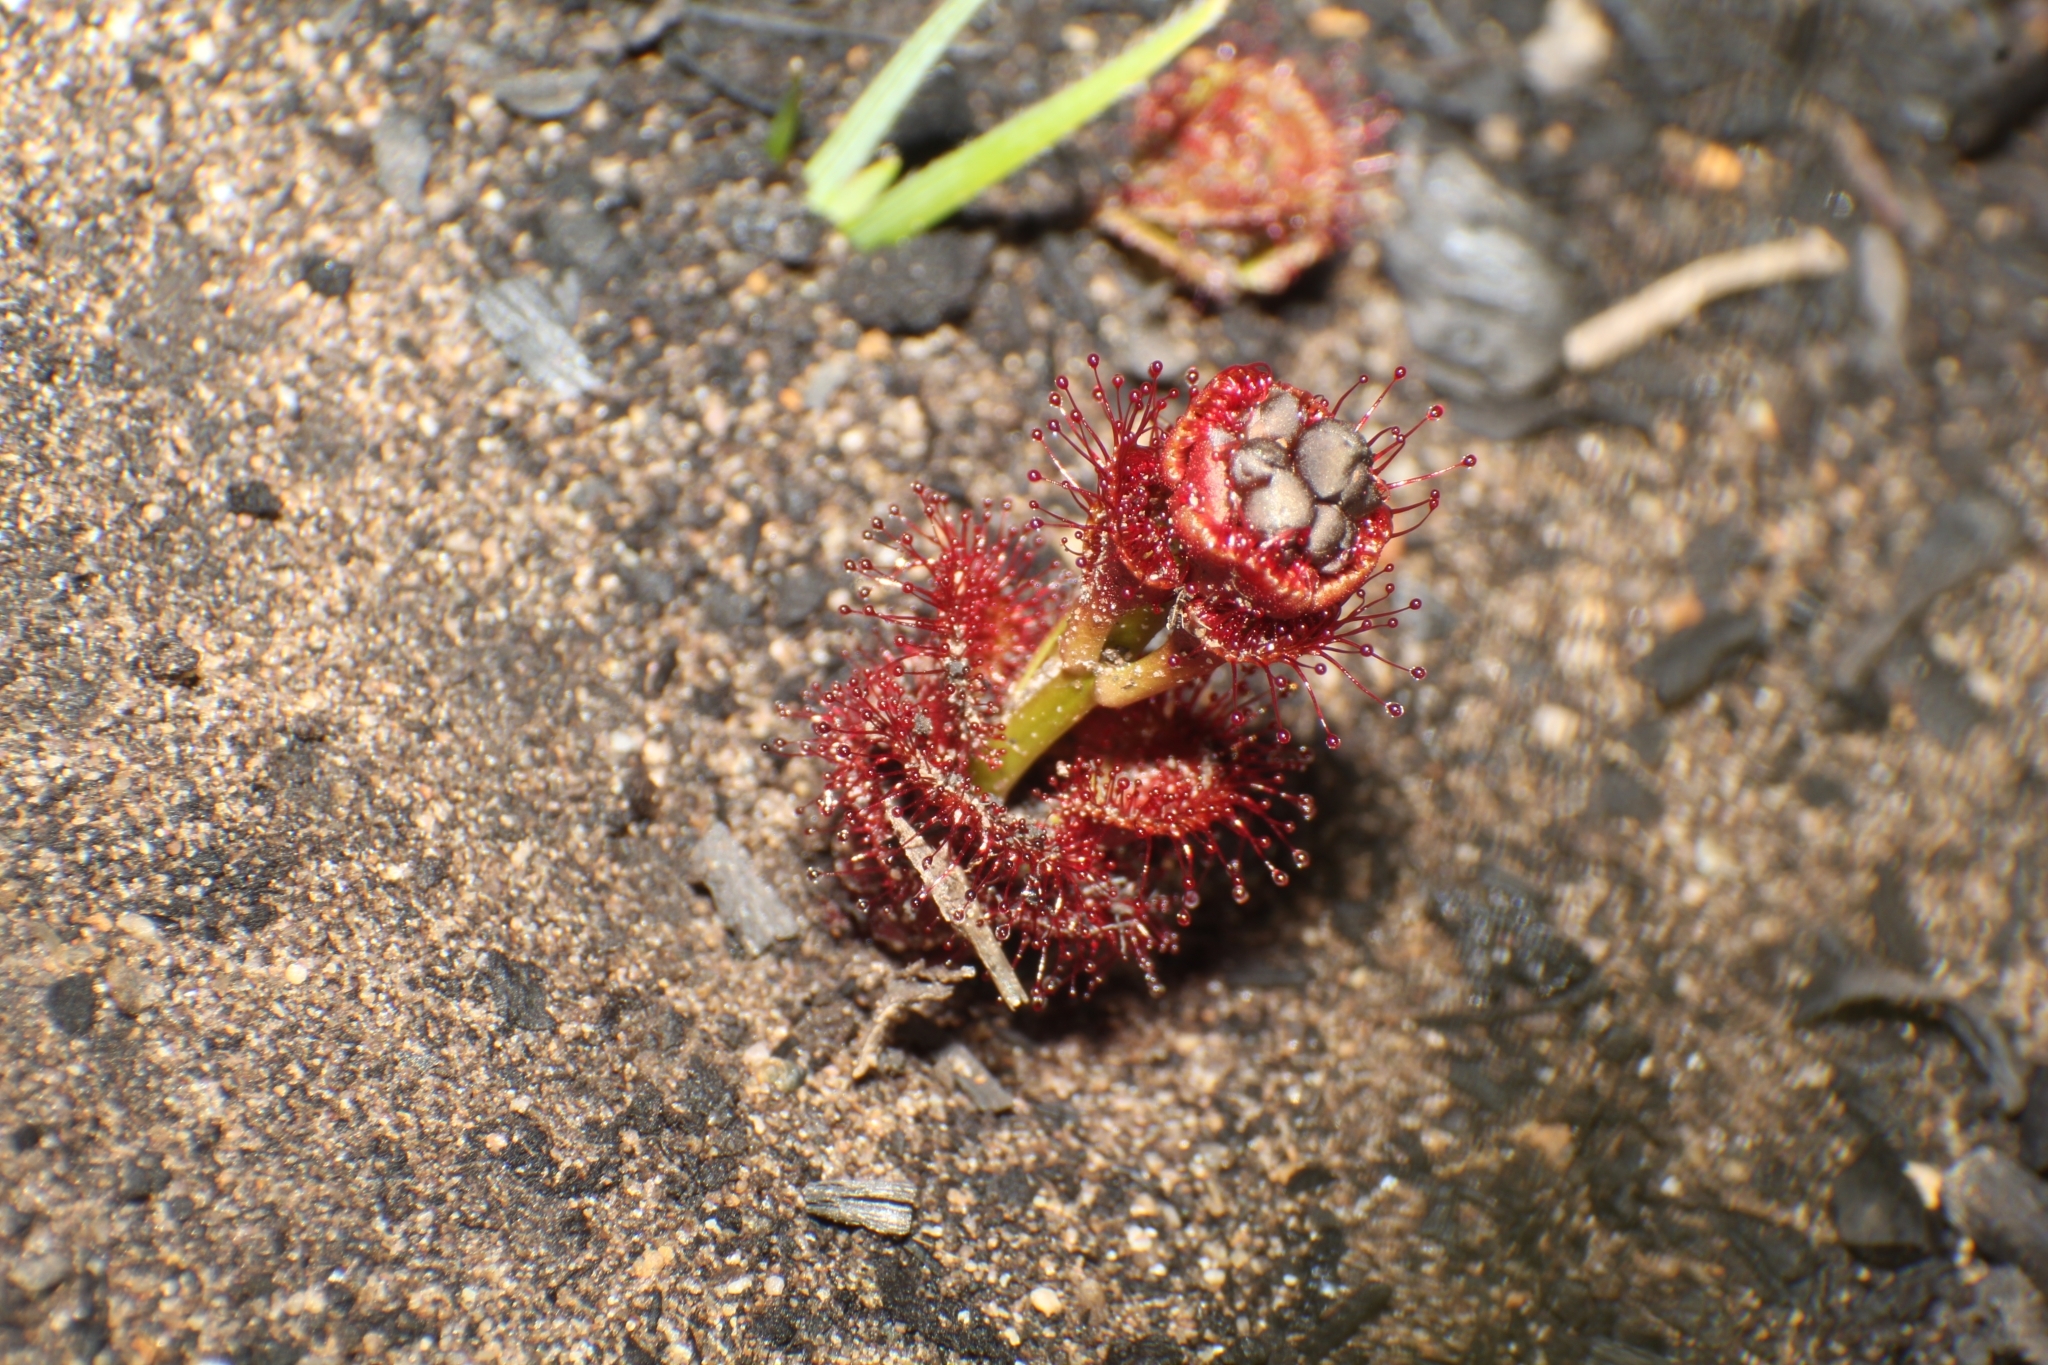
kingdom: Plantae
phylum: Tracheophyta
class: Magnoliopsida
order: Caryophyllales
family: Droseraceae
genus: Drosera
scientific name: Drosera platypoda
